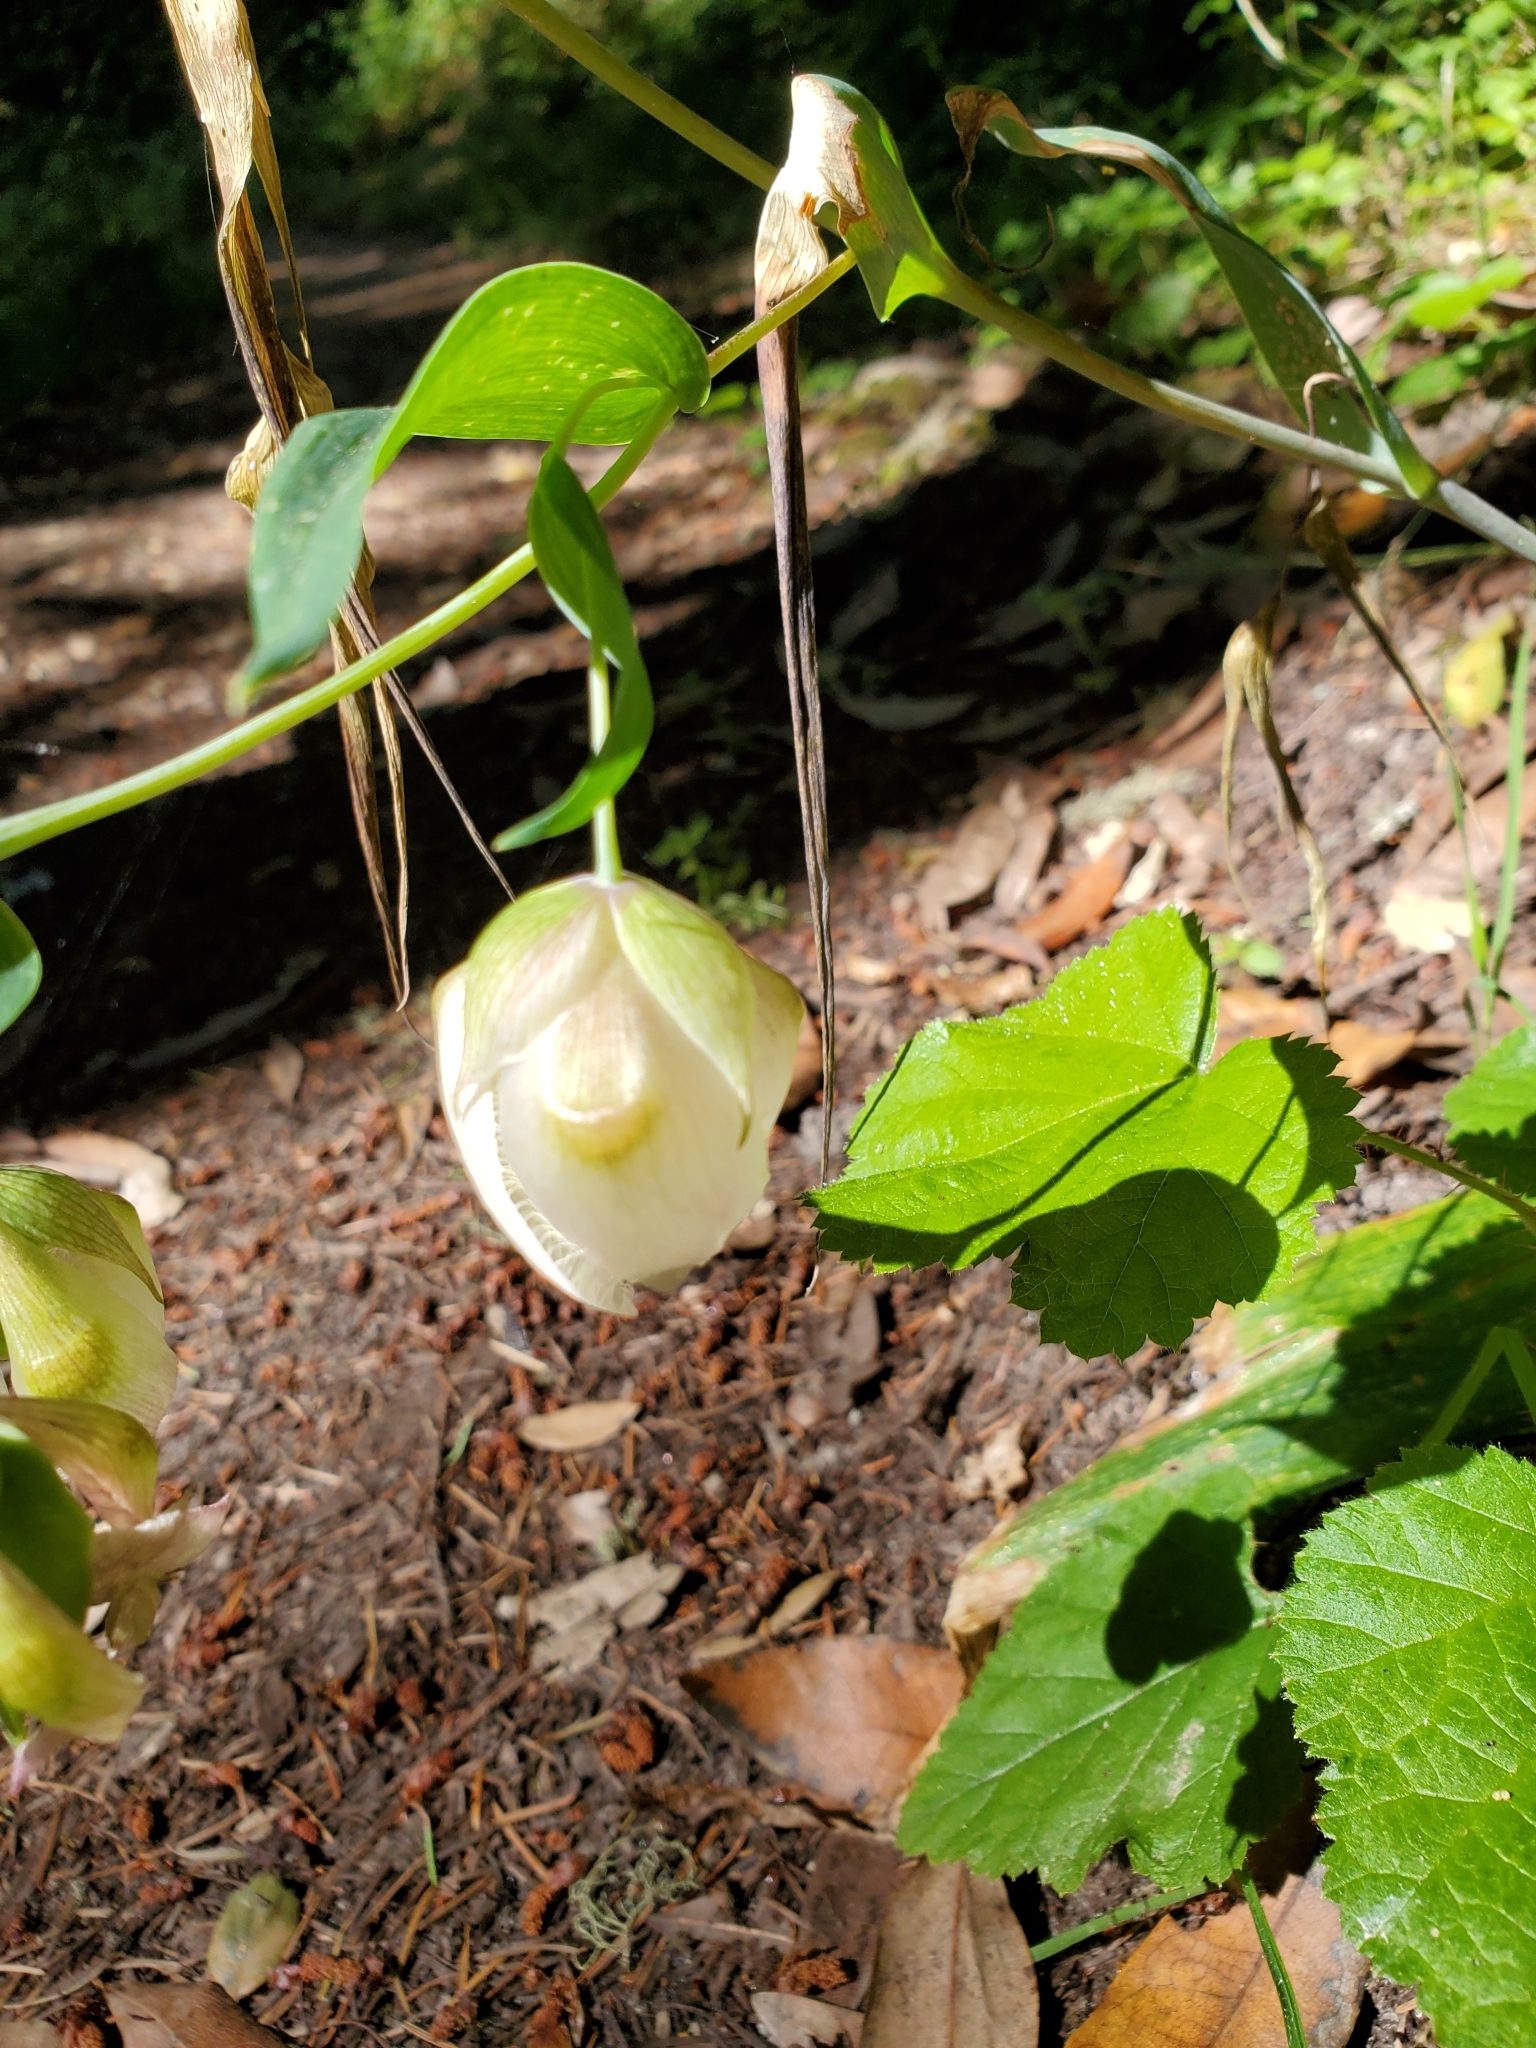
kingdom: Plantae
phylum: Tracheophyta
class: Liliopsida
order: Liliales
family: Liliaceae
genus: Calochortus
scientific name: Calochortus albus
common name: Fairy-lantern
